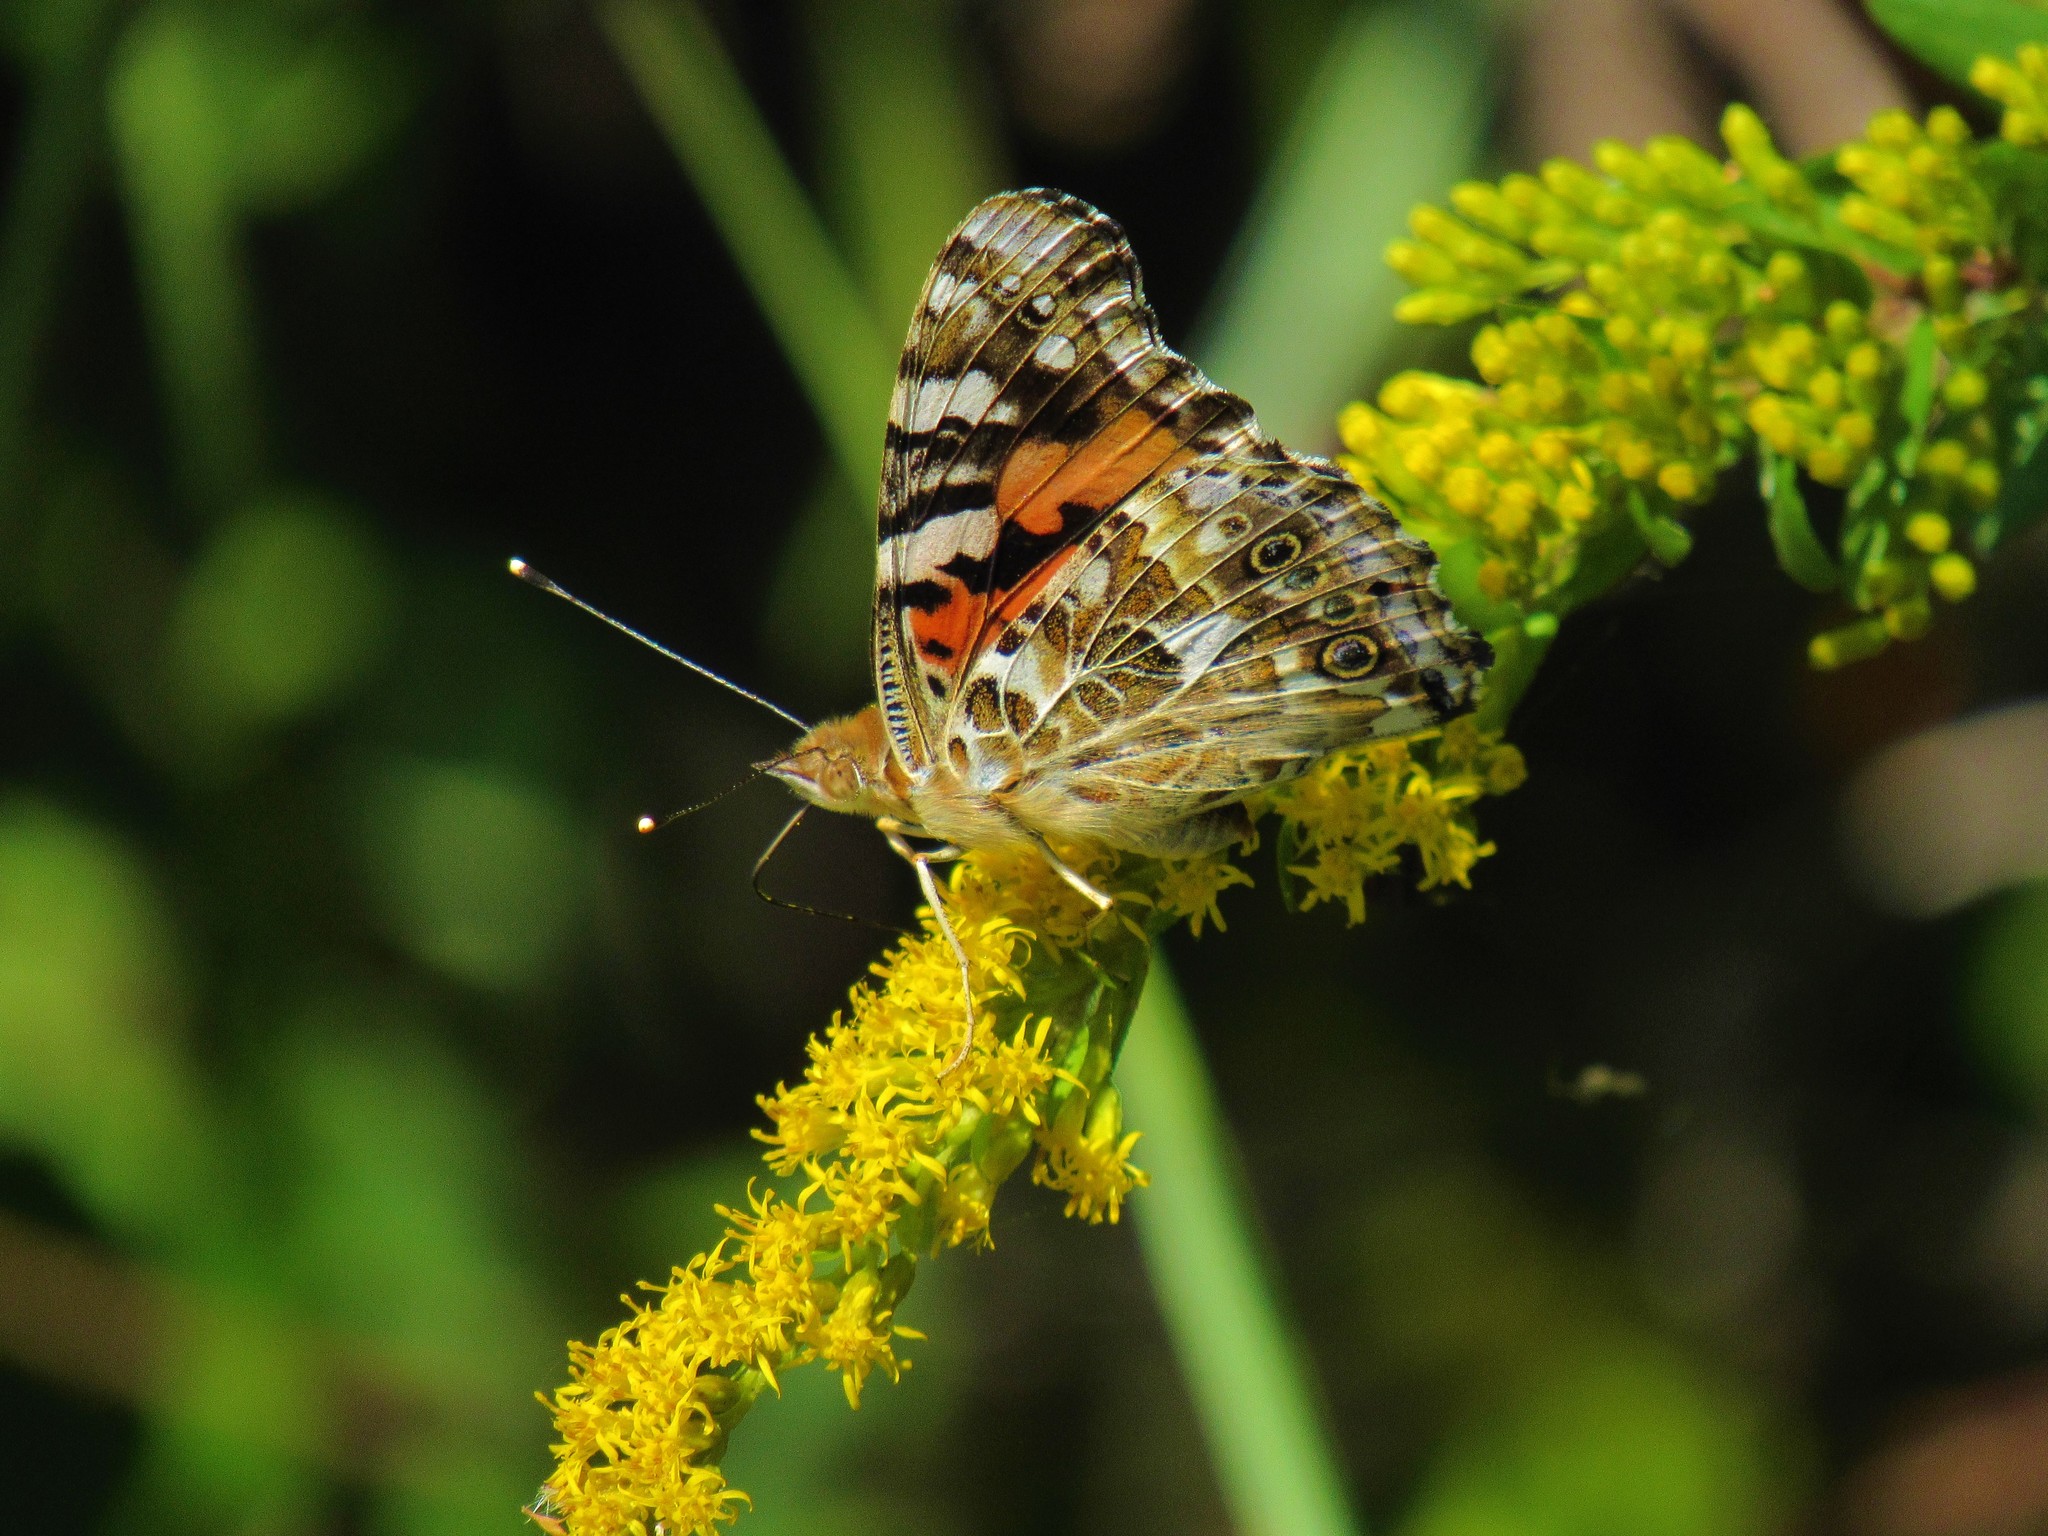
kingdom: Animalia
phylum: Arthropoda
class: Insecta
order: Lepidoptera
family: Nymphalidae
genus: Vanessa
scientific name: Vanessa cardui
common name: Painted lady
